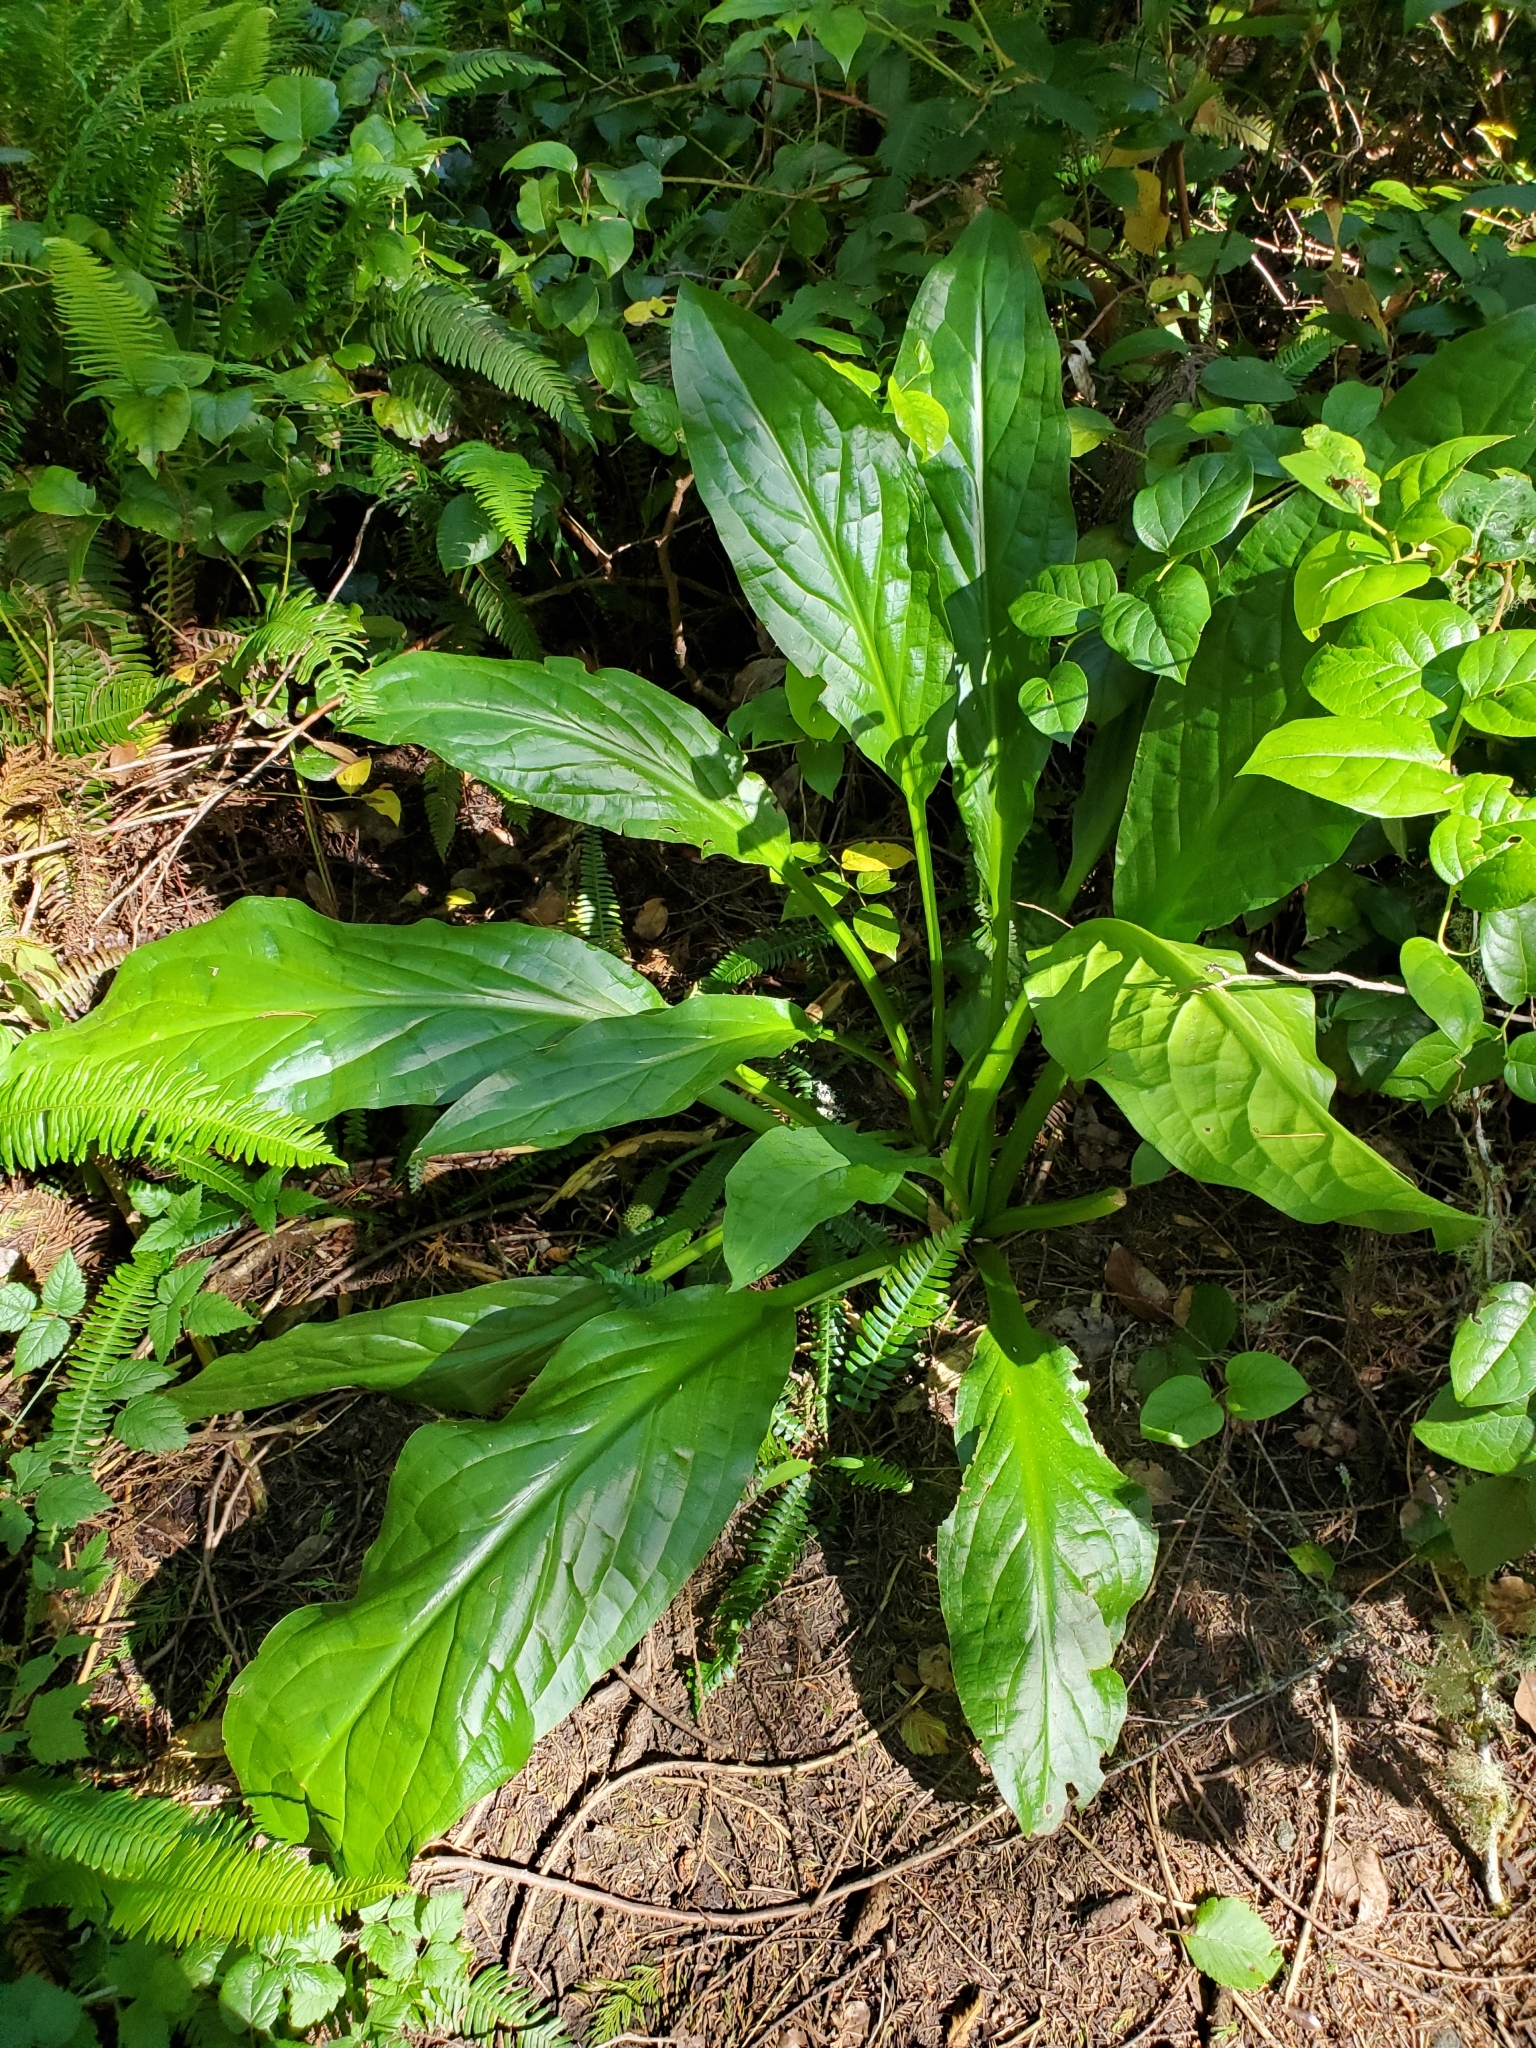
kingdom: Plantae
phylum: Tracheophyta
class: Liliopsida
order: Alismatales
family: Araceae
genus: Lysichiton
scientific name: Lysichiton americanus
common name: American skunk cabbage
